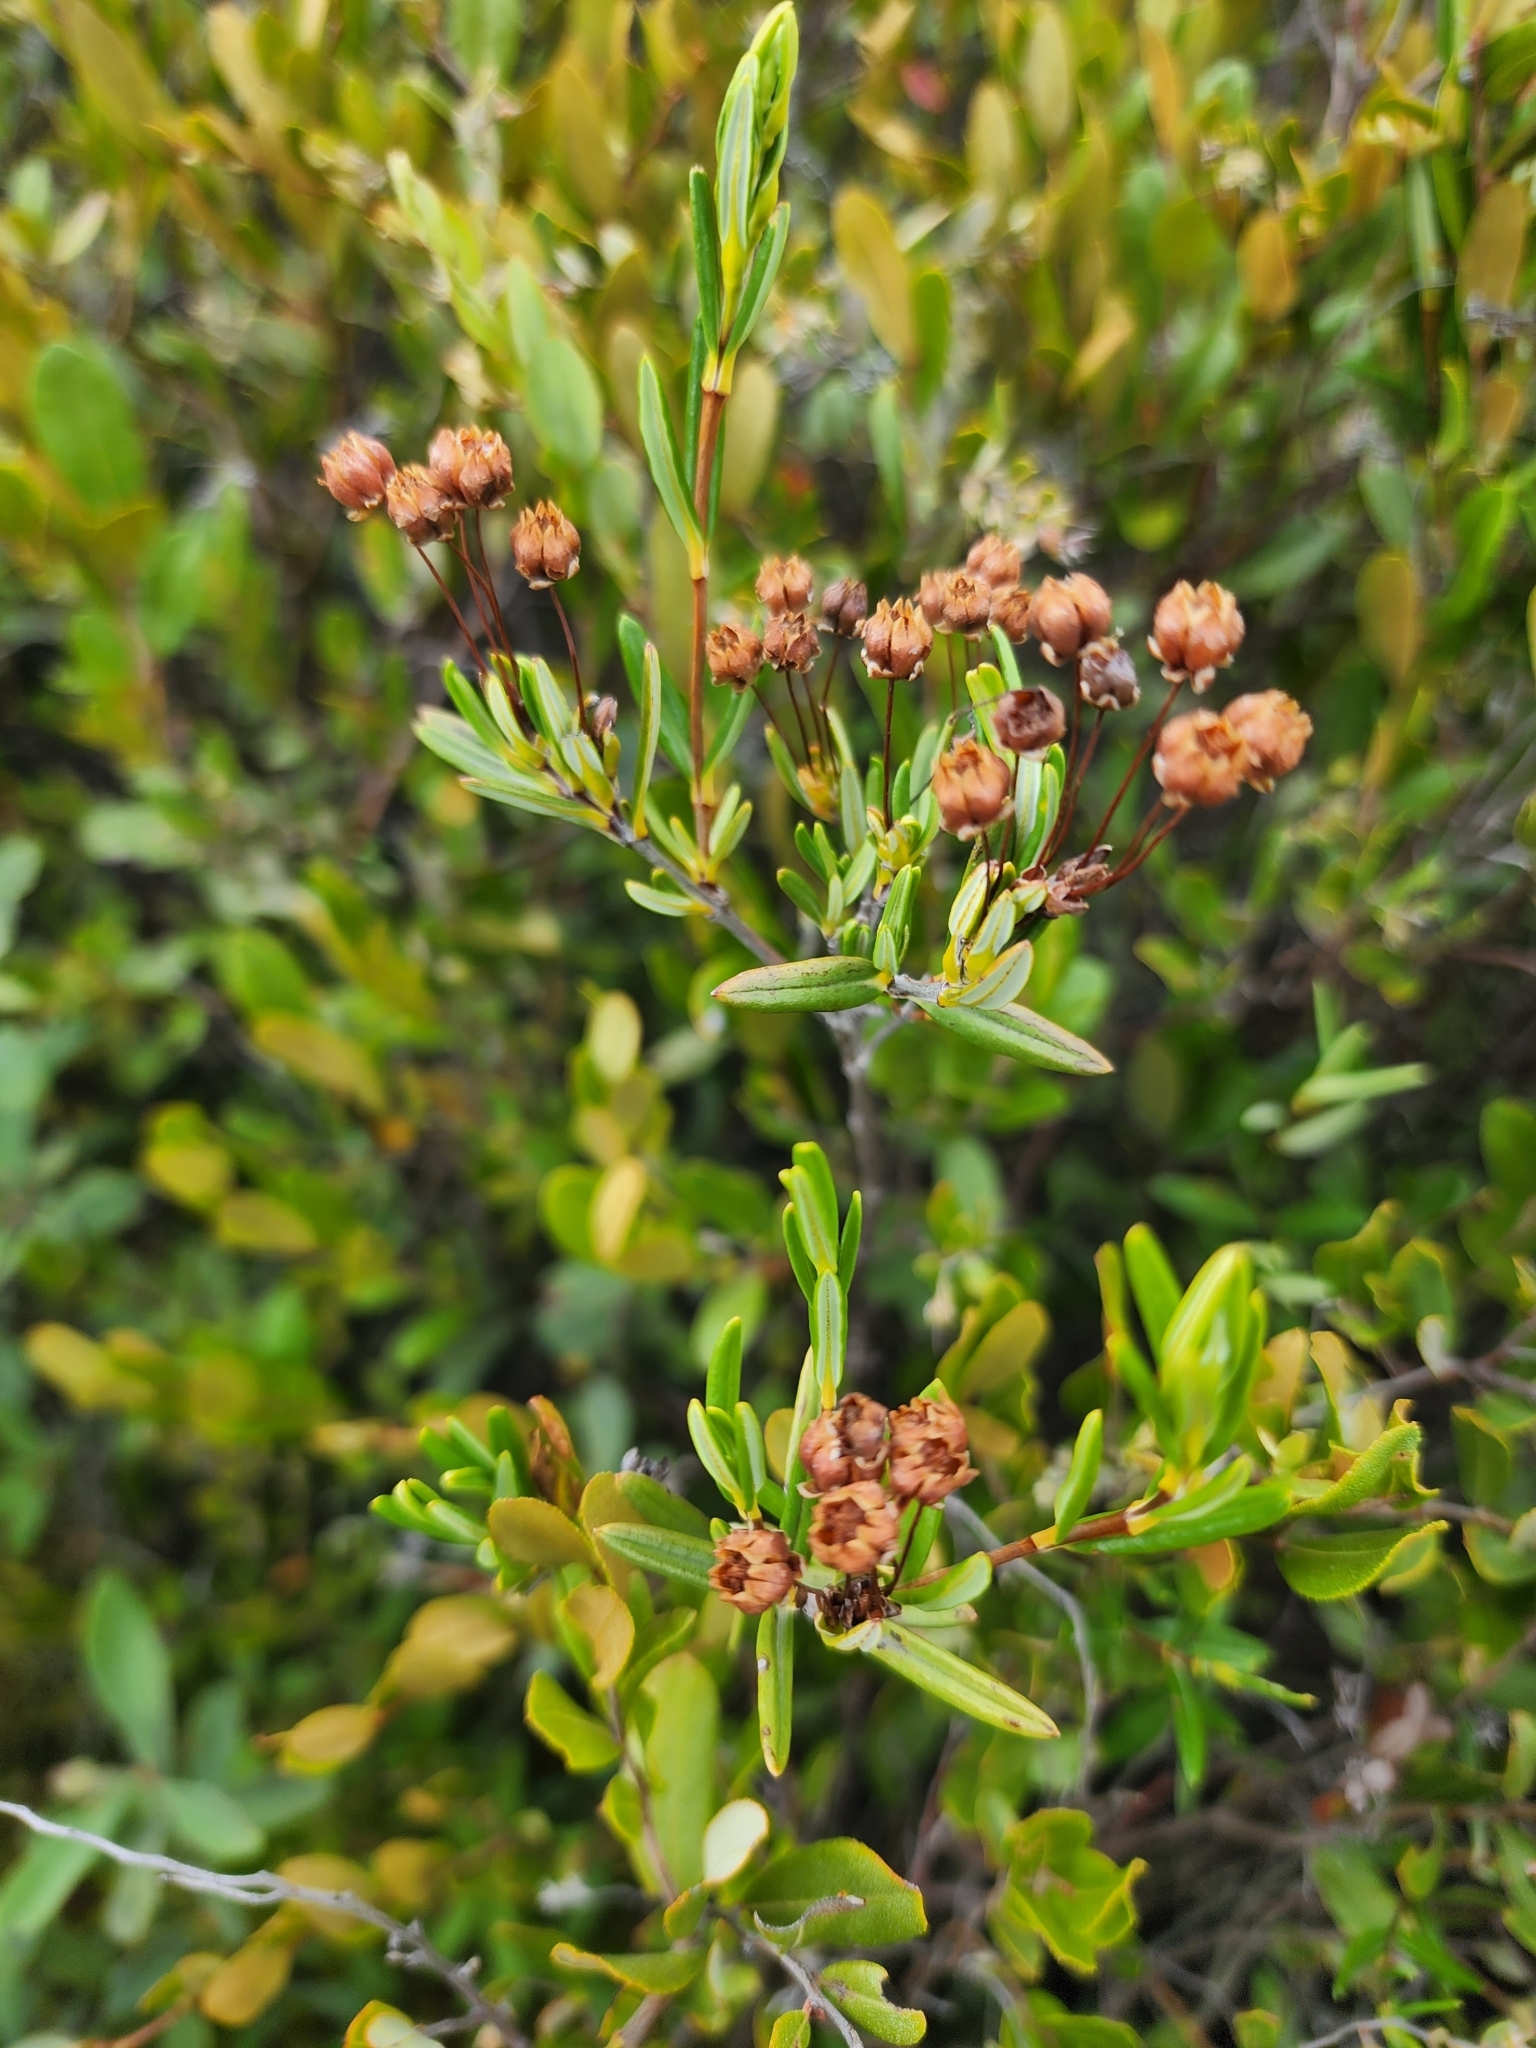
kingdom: Plantae
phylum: Tracheophyta
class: Magnoliopsida
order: Ericales
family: Ericaceae
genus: Kalmia
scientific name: Kalmia polifolia
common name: Bog-laurel
